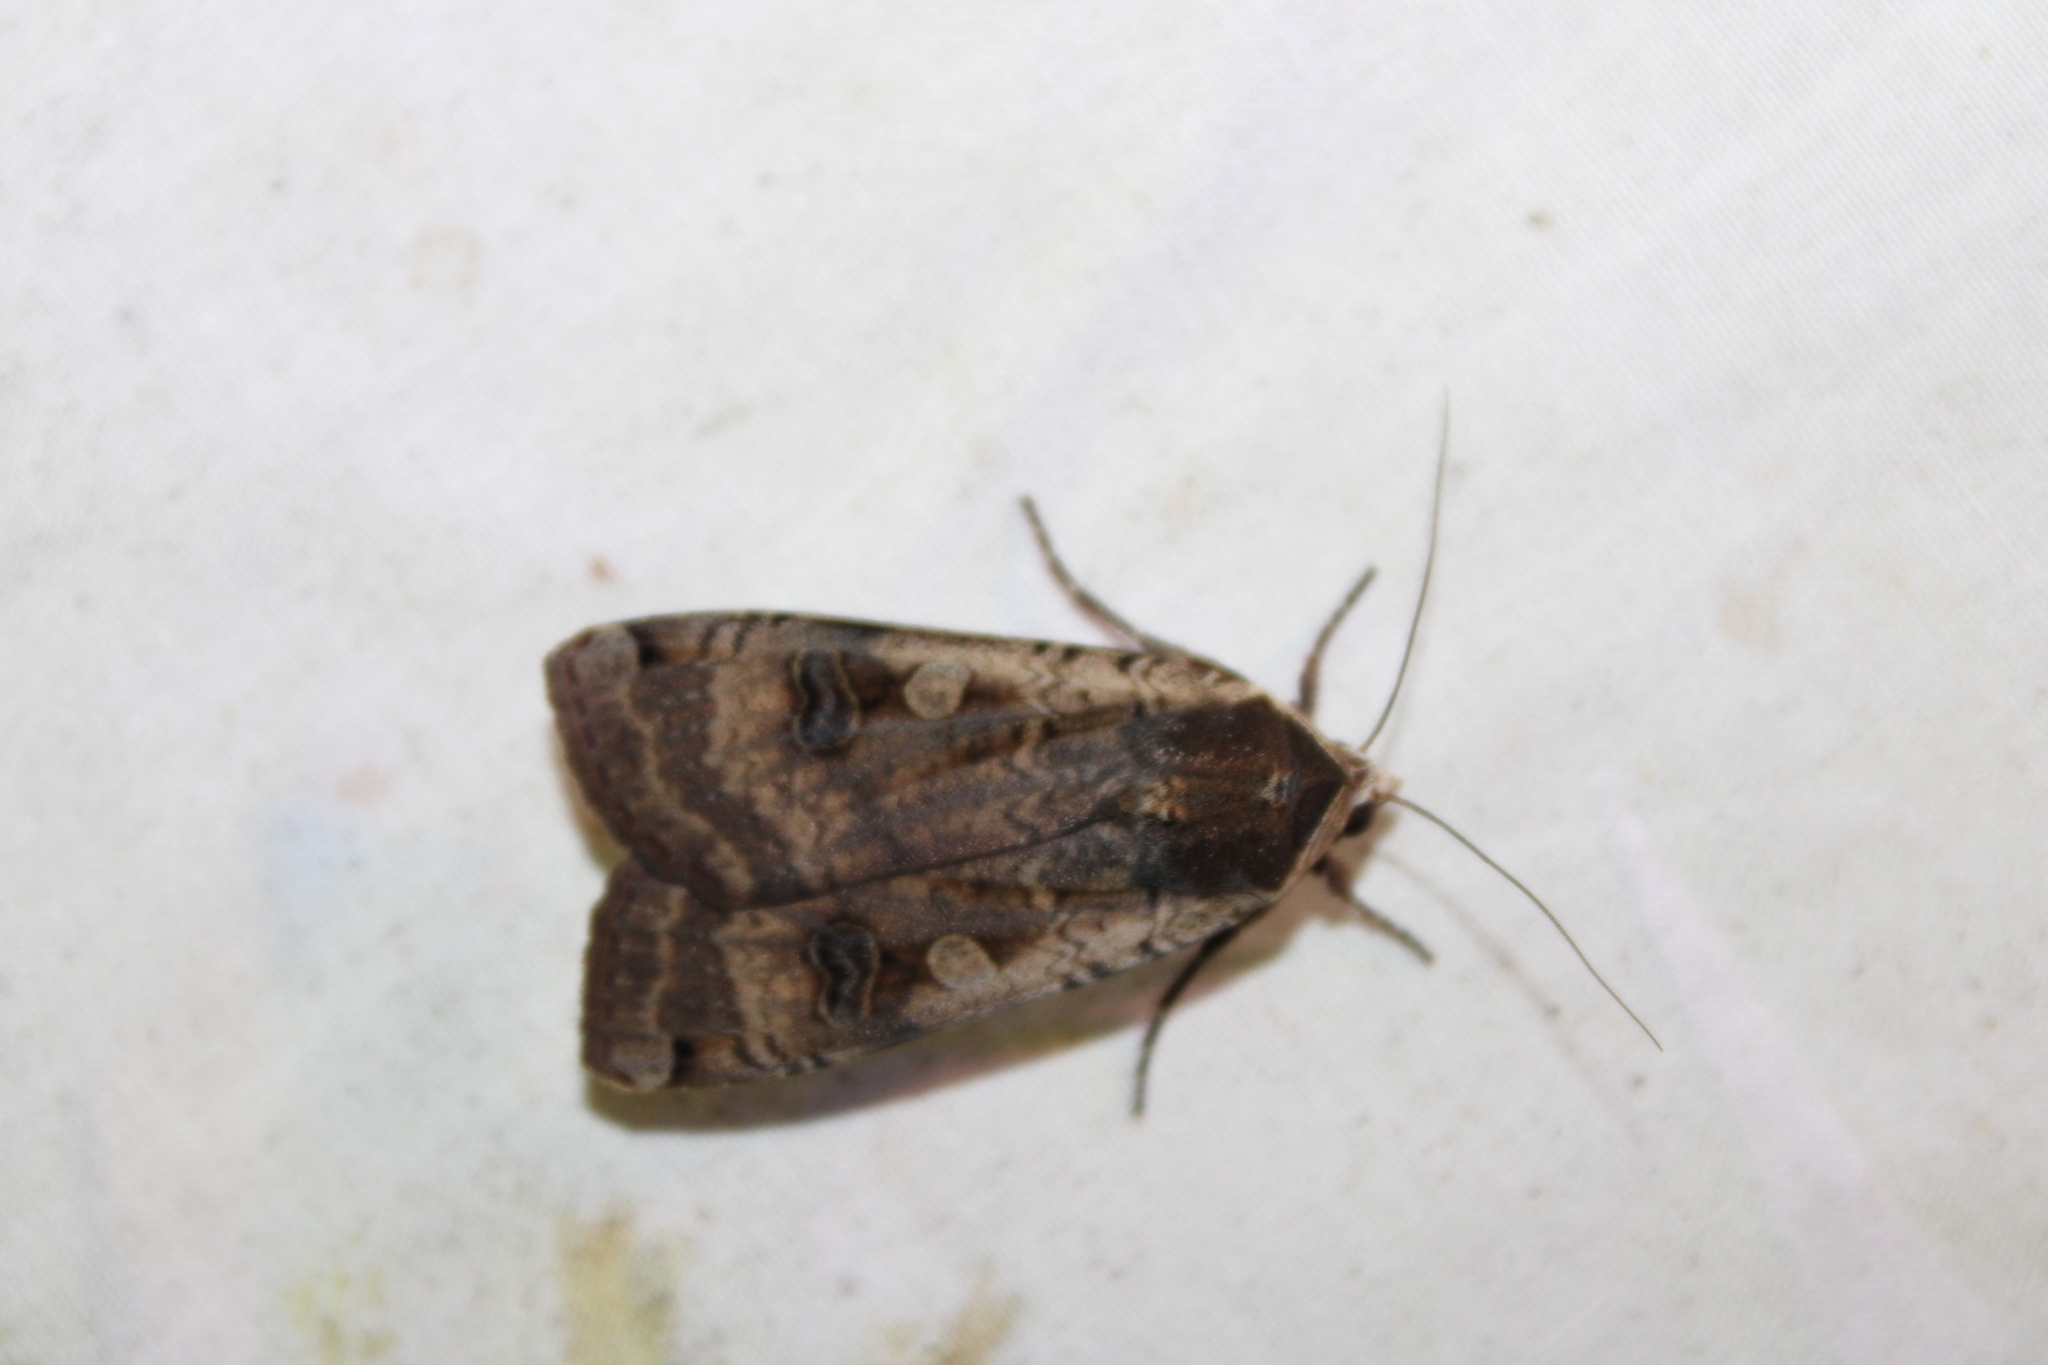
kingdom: Animalia
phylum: Arthropoda
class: Insecta
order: Lepidoptera
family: Noctuidae
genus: Noctua
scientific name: Noctua pronuba
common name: Large yellow underwing
